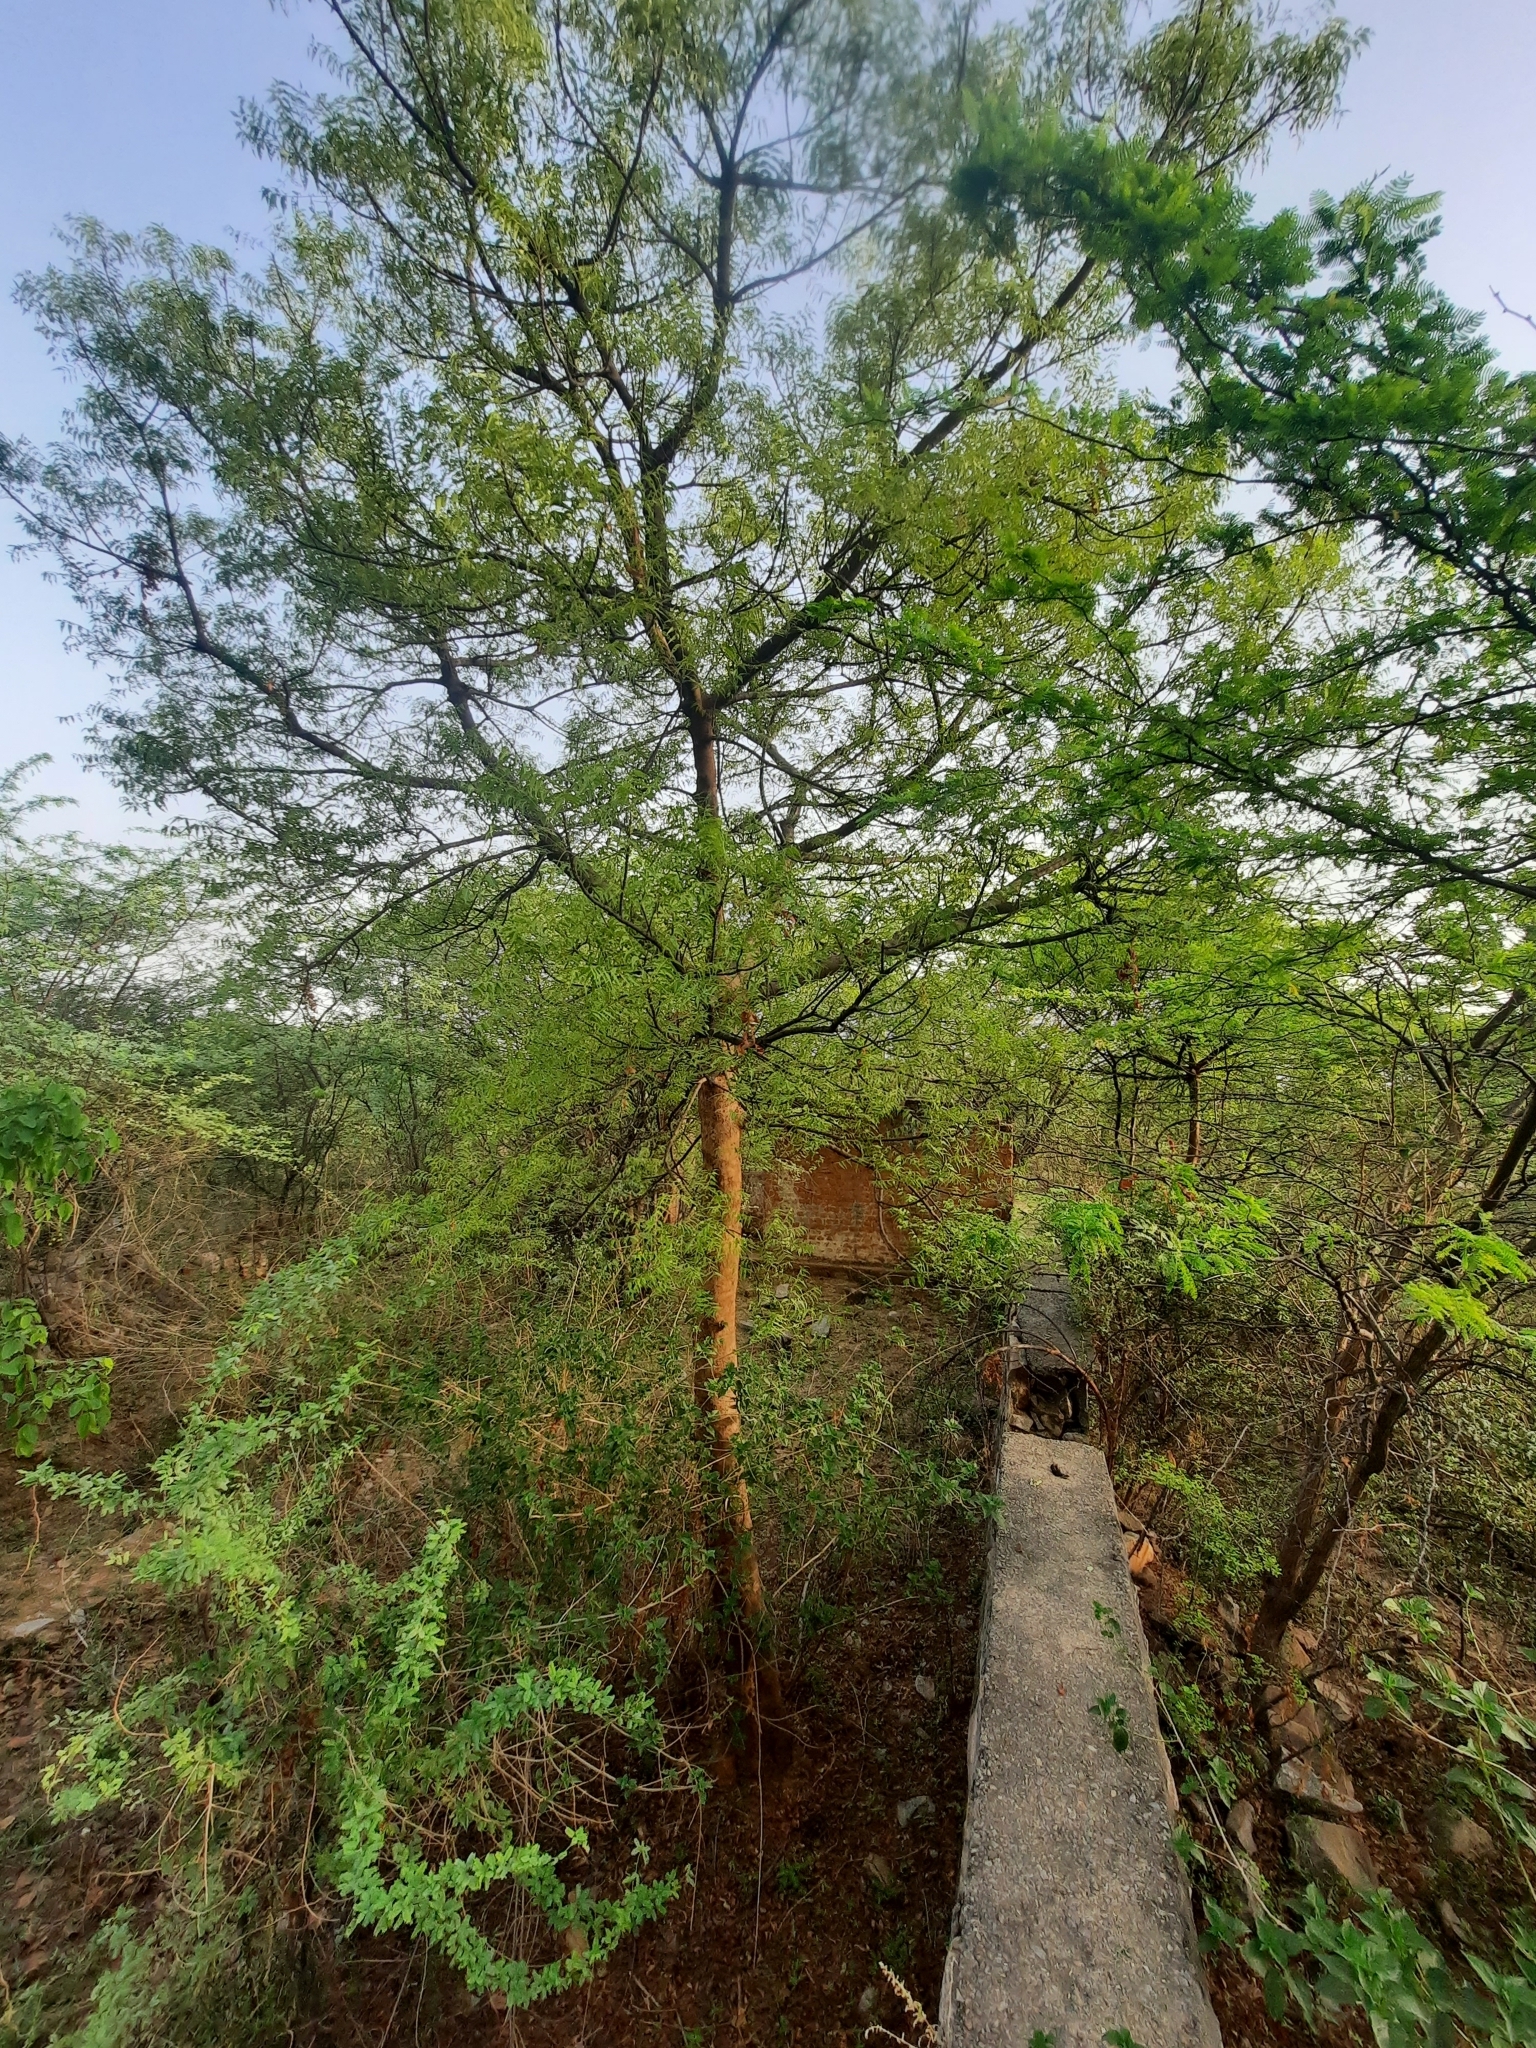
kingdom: Plantae
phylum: Tracheophyta
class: Magnoliopsida
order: Sapindales
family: Meliaceae
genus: Azadirachta
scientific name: Azadirachta indica
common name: Neem
